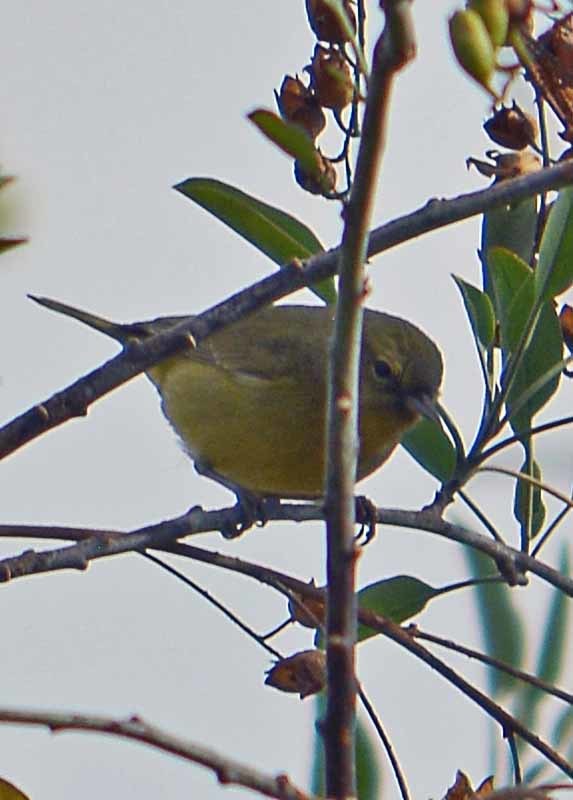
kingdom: Animalia
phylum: Chordata
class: Aves
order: Passeriformes
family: Parulidae
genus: Leiothlypis
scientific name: Leiothlypis celata
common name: Orange-crowned warbler
